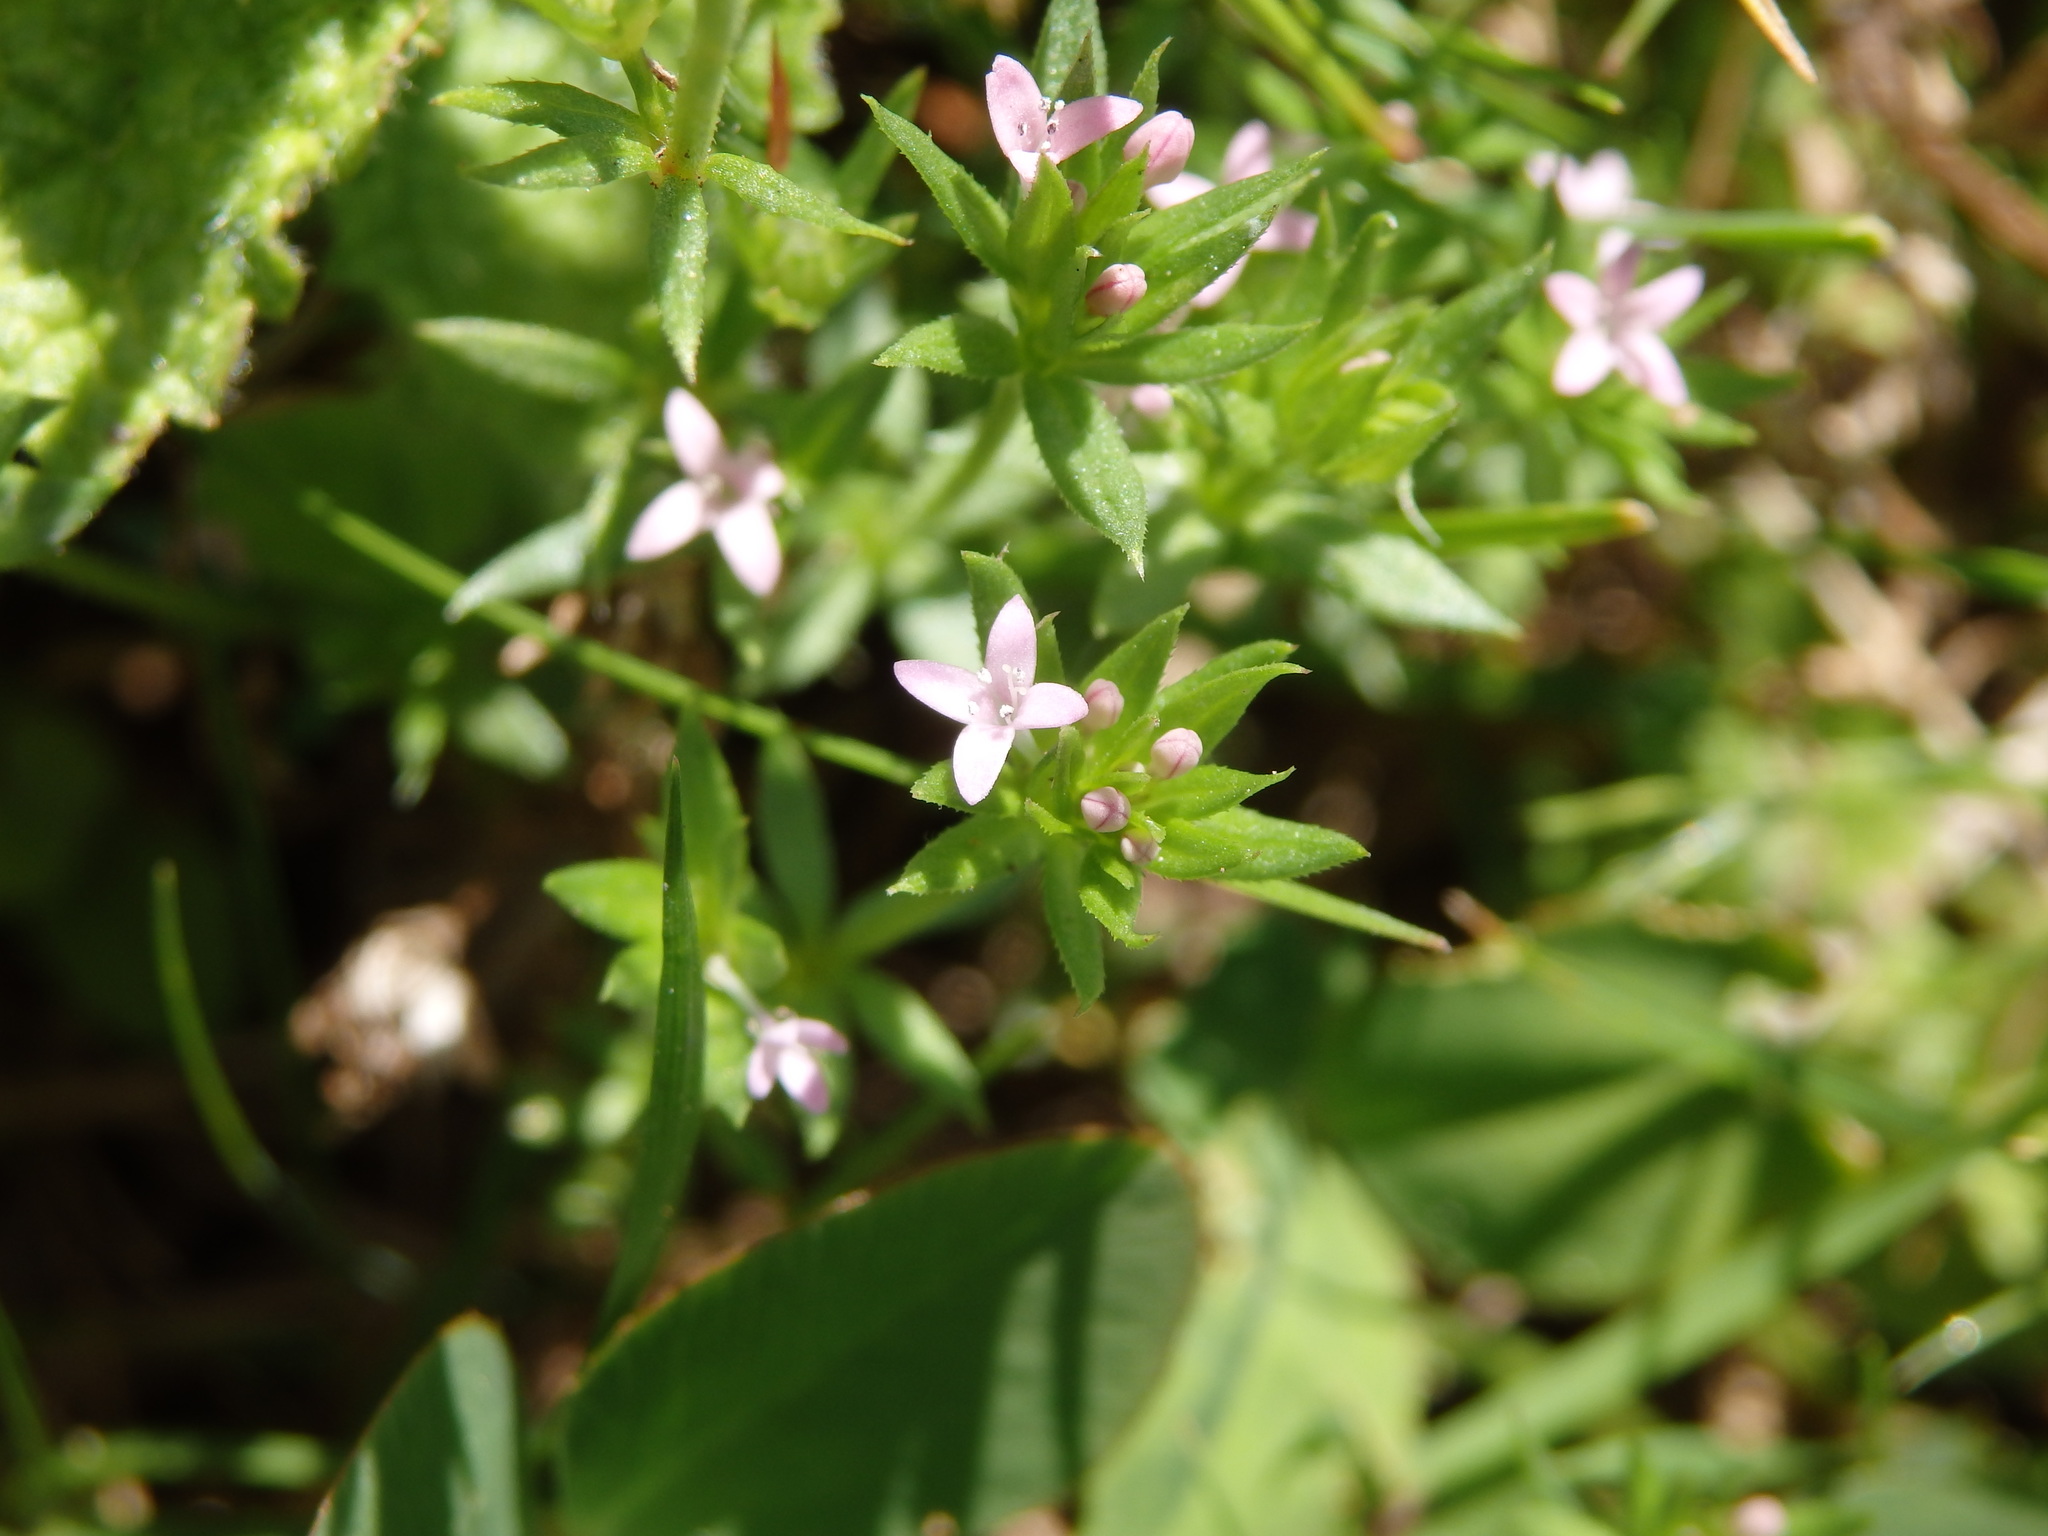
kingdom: Plantae
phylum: Tracheophyta
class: Magnoliopsida
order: Gentianales
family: Rubiaceae
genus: Sherardia
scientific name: Sherardia arvensis
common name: Field madder
